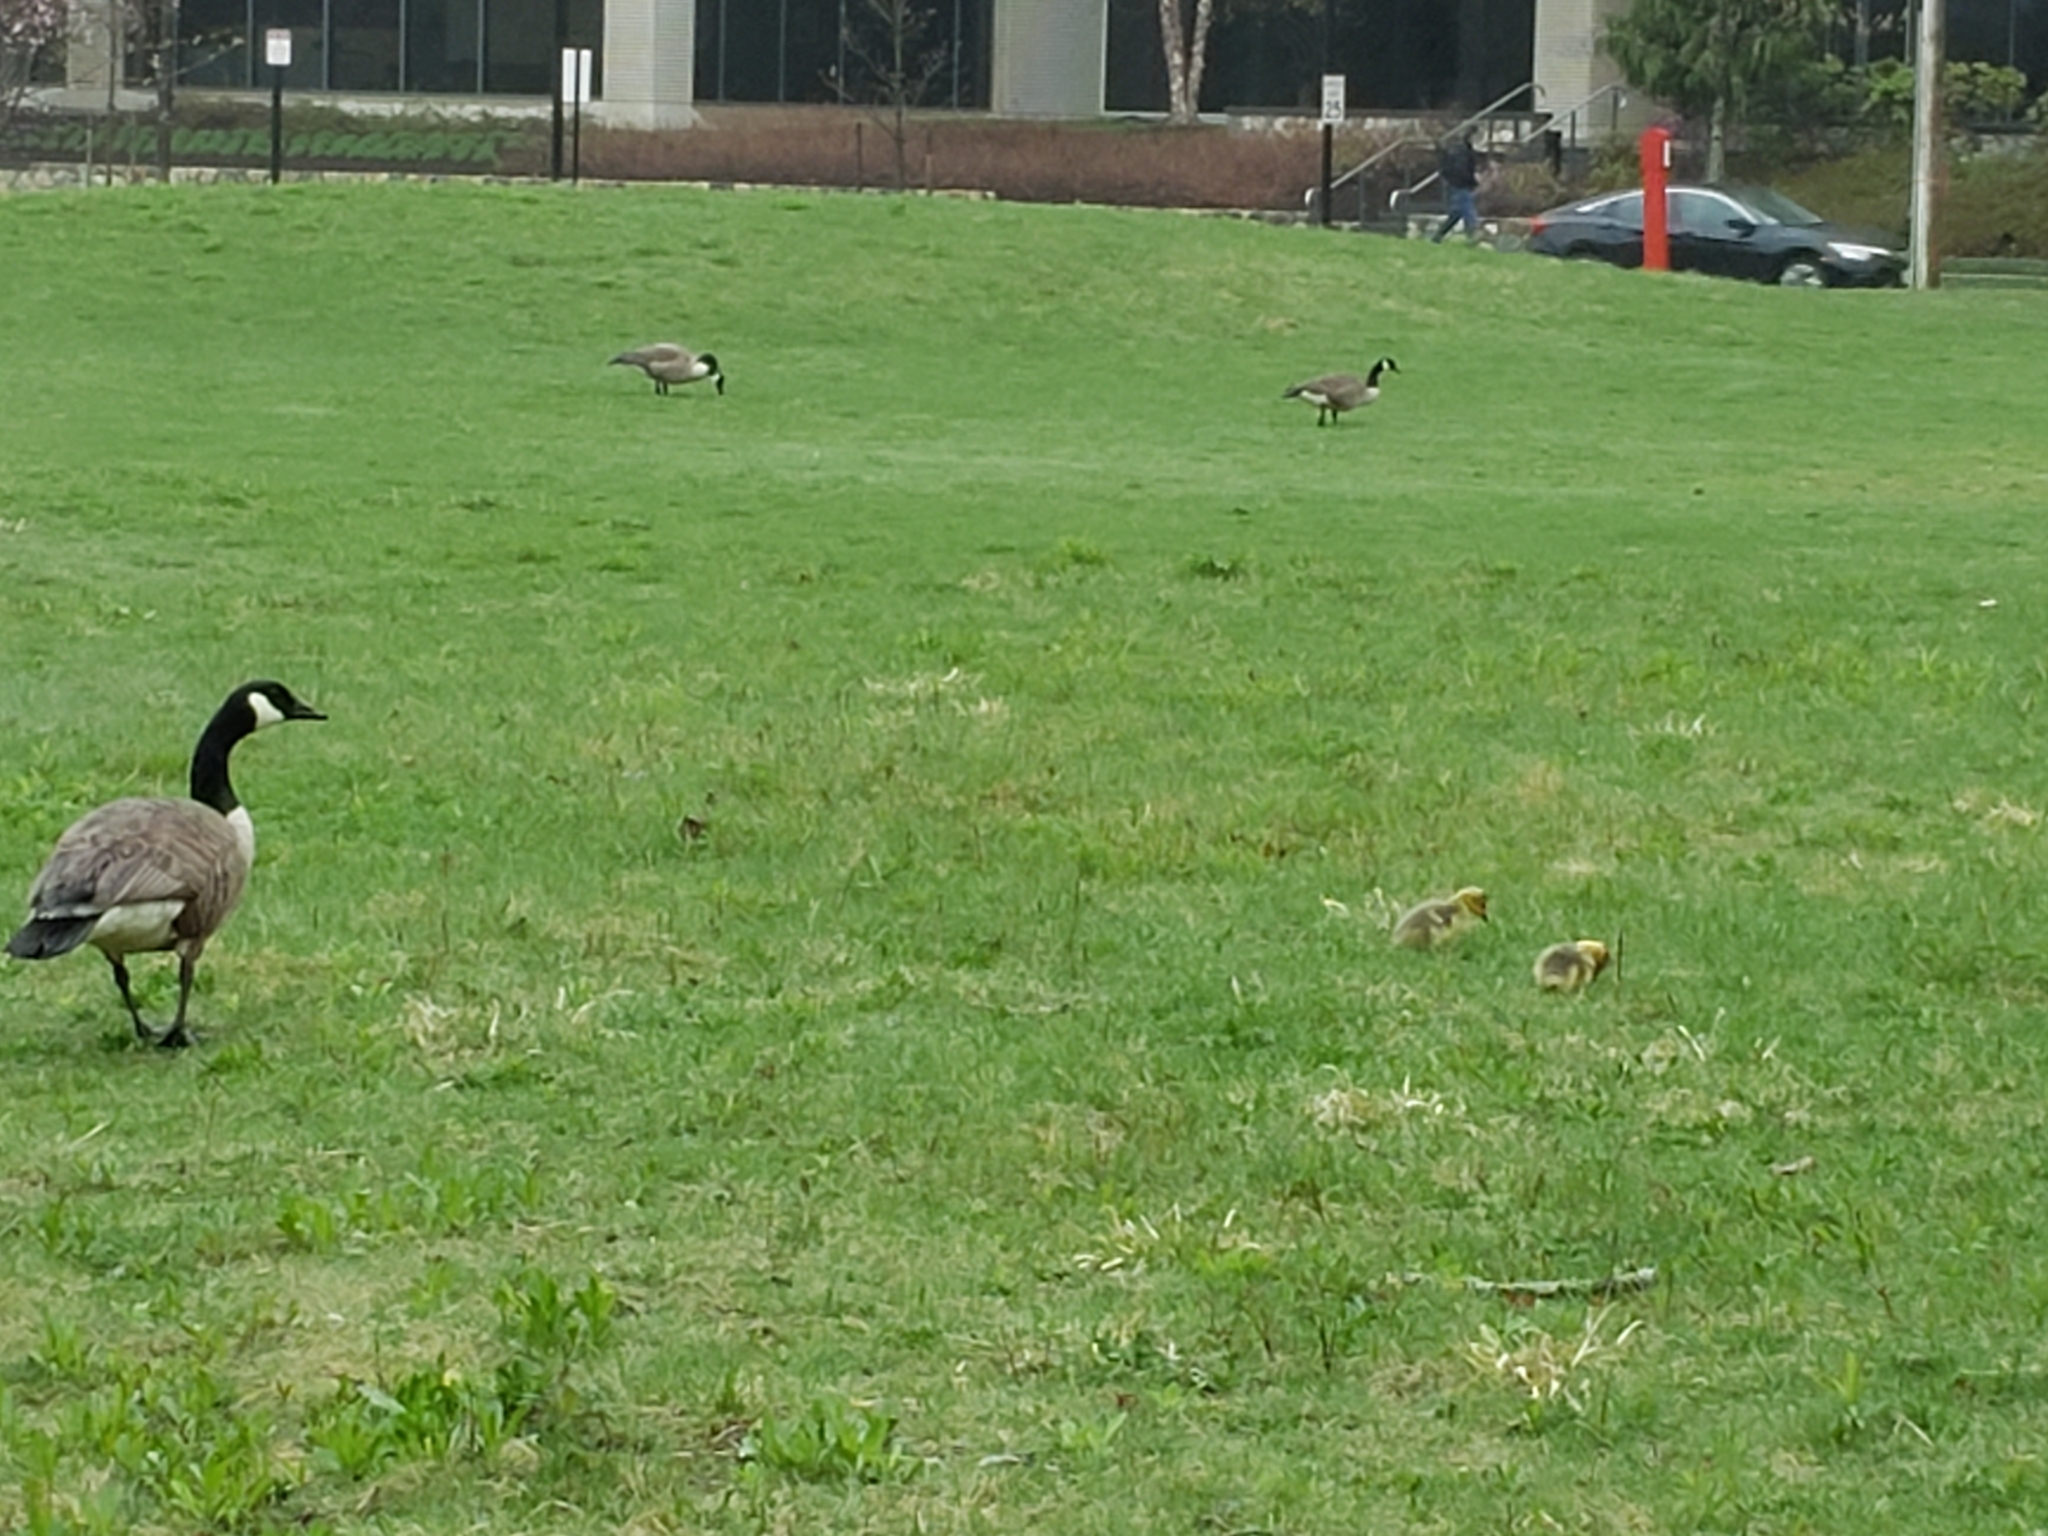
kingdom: Animalia
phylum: Chordata
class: Aves
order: Anseriformes
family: Anatidae
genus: Branta
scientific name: Branta canadensis
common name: Canada goose
